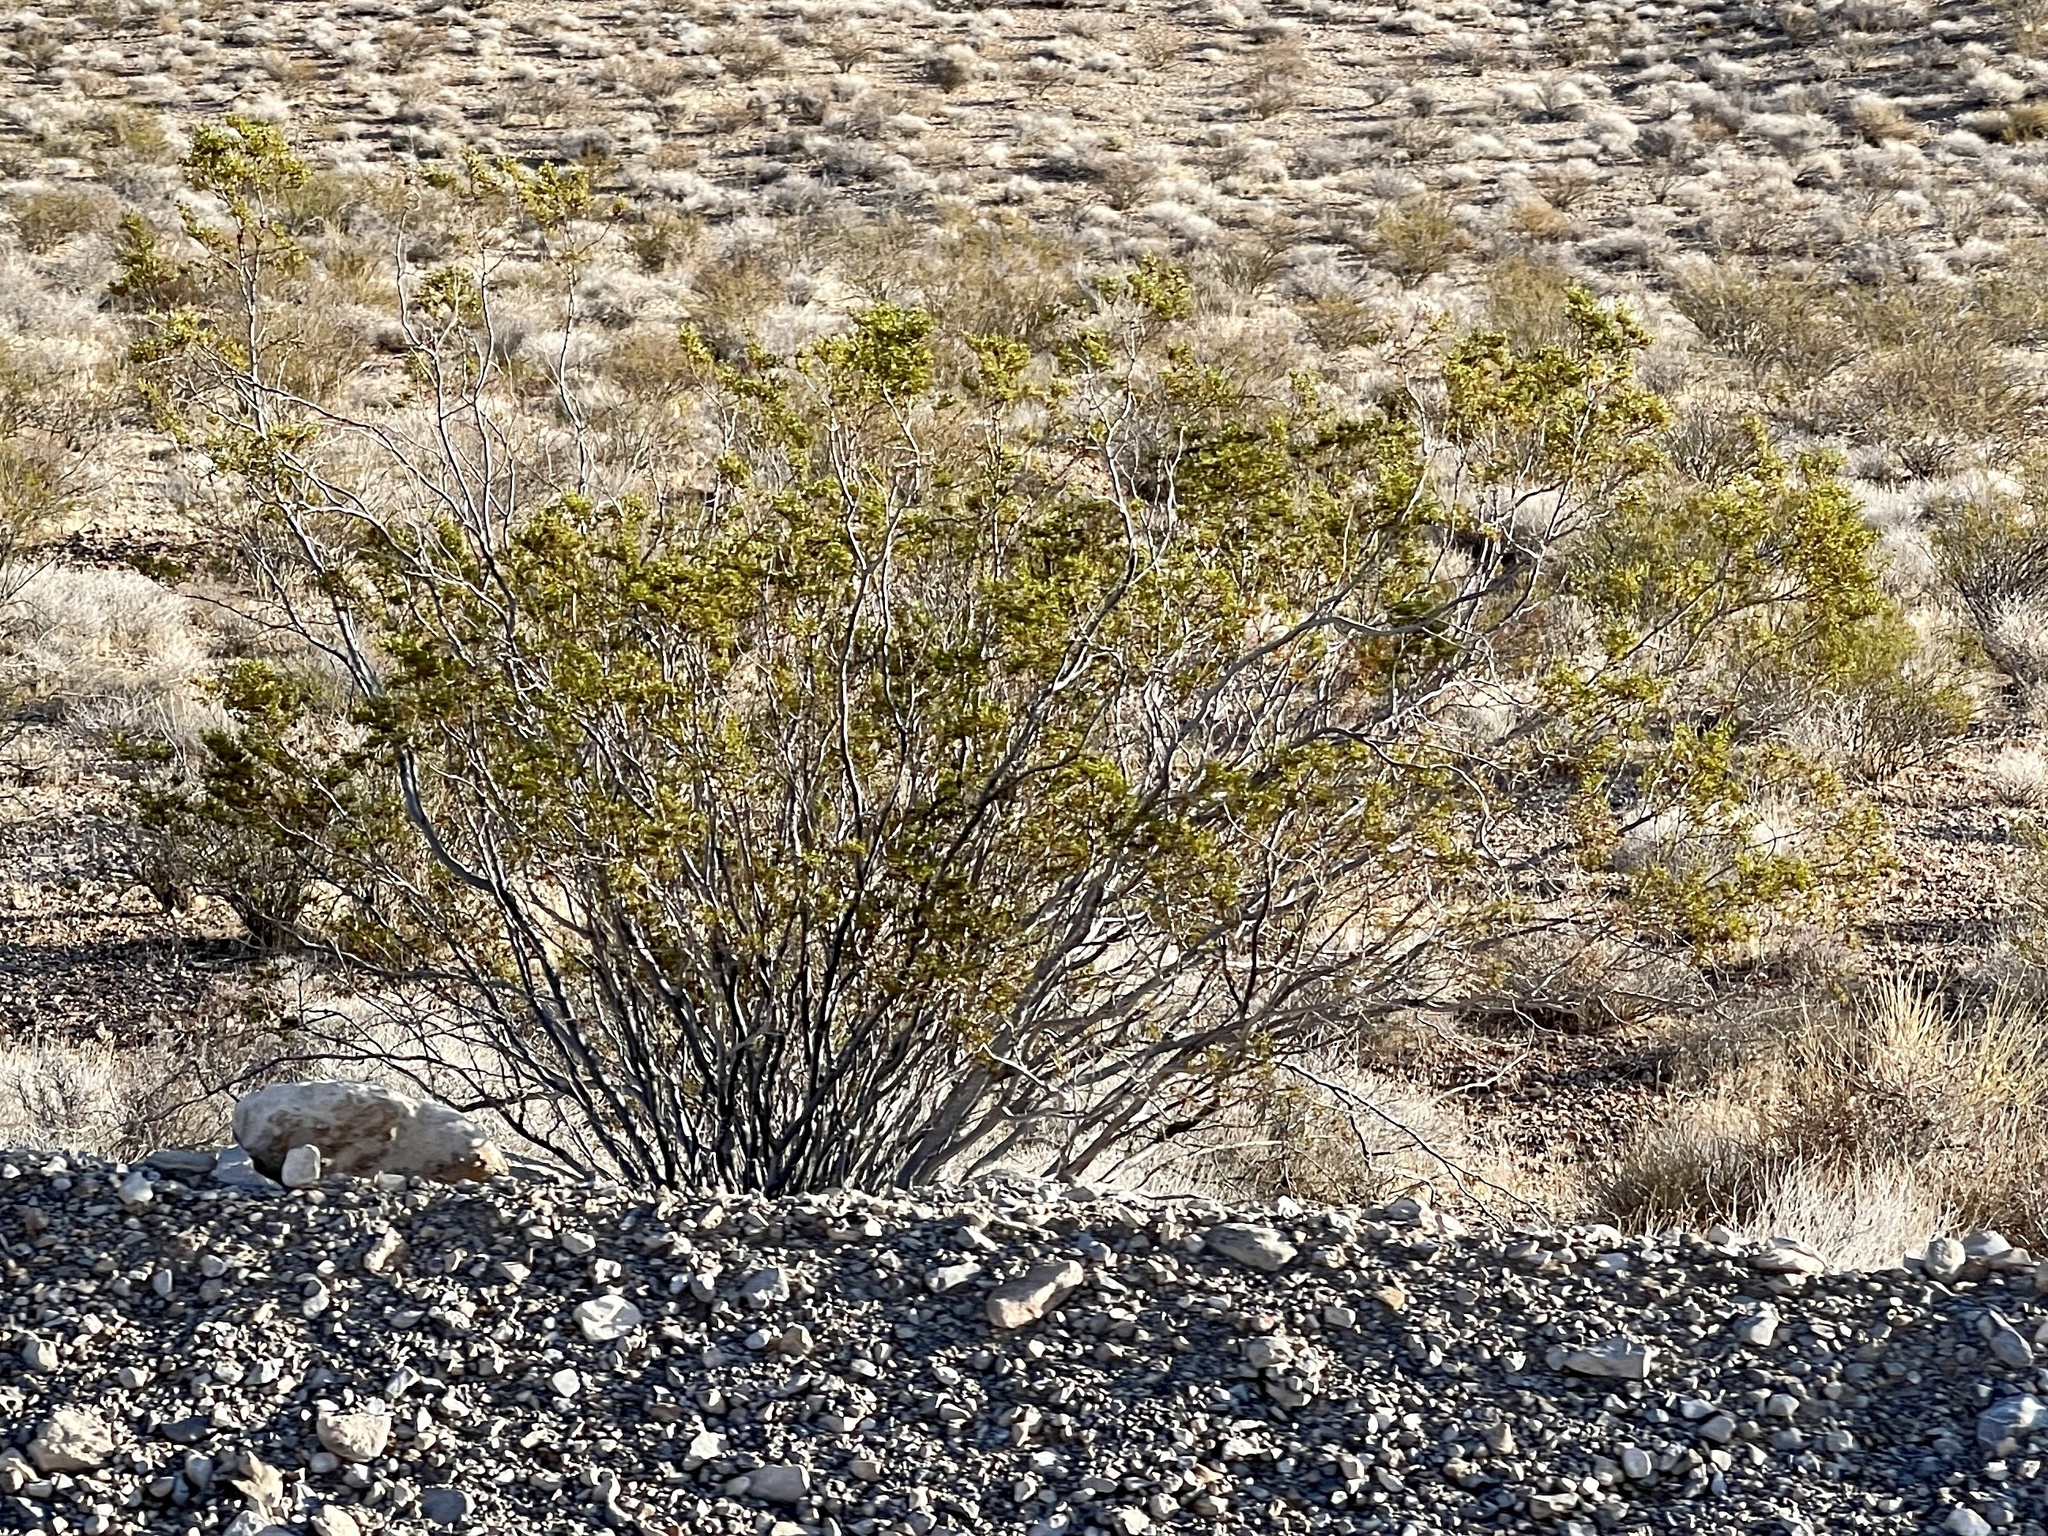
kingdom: Plantae
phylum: Tracheophyta
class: Magnoliopsida
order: Zygophyllales
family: Zygophyllaceae
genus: Larrea
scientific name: Larrea tridentata
